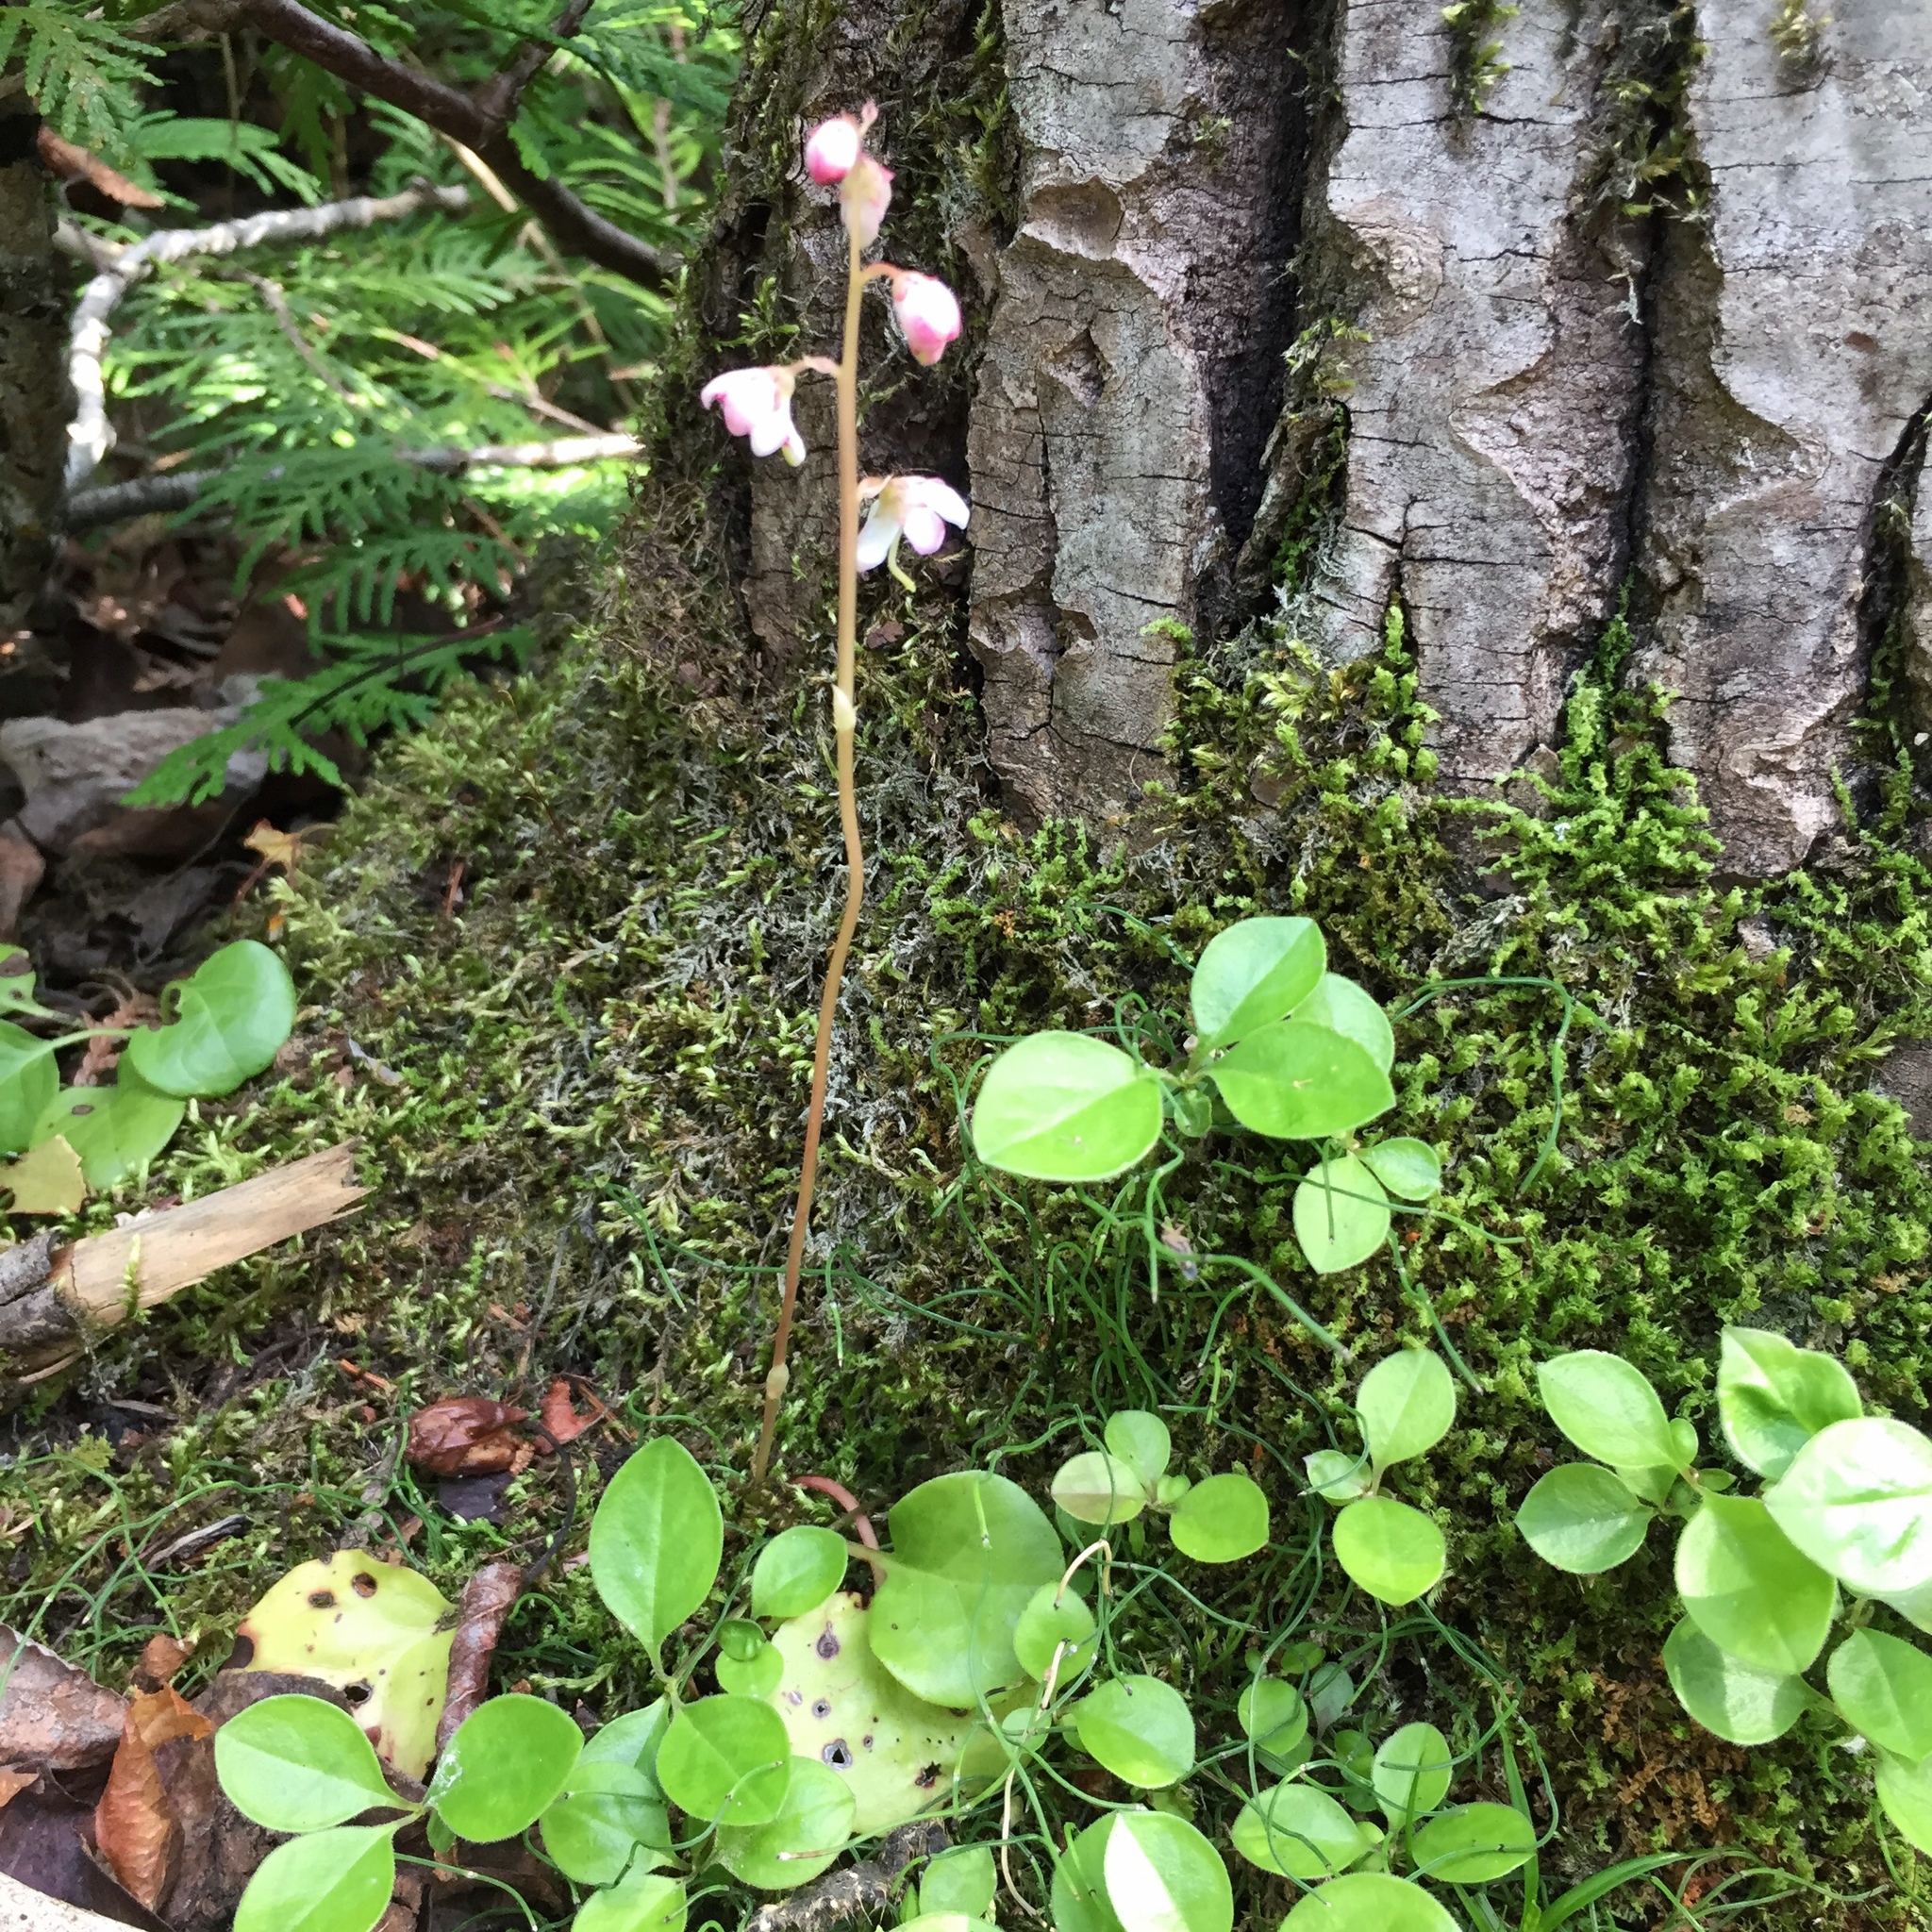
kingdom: Plantae
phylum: Tracheophyta
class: Magnoliopsida
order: Ericales
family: Ericaceae
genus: Pyrola
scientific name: Pyrola asarifolia
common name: Bog wintergreen
